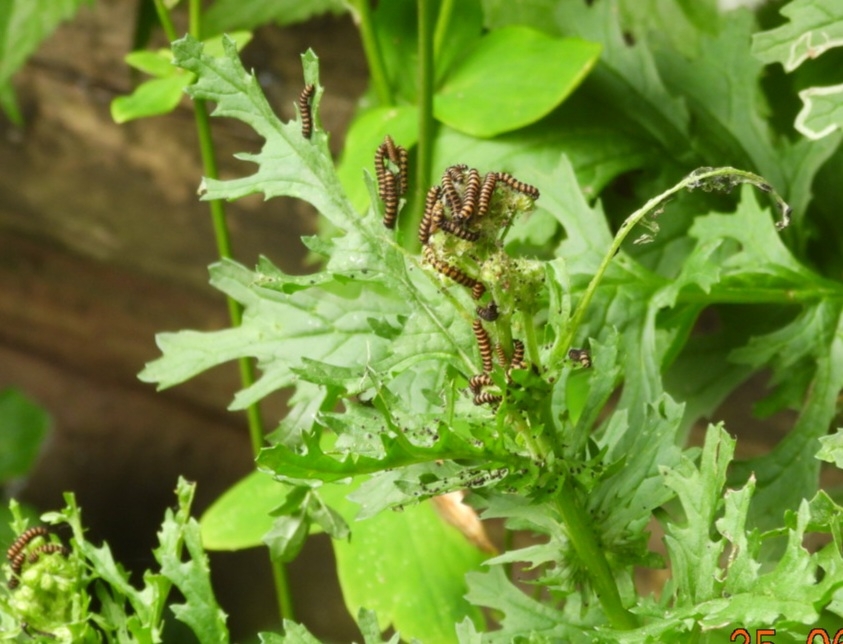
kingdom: Animalia
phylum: Arthropoda
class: Insecta
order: Lepidoptera
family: Erebidae
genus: Tyria
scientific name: Tyria jacobaeae
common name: Cinnabar
